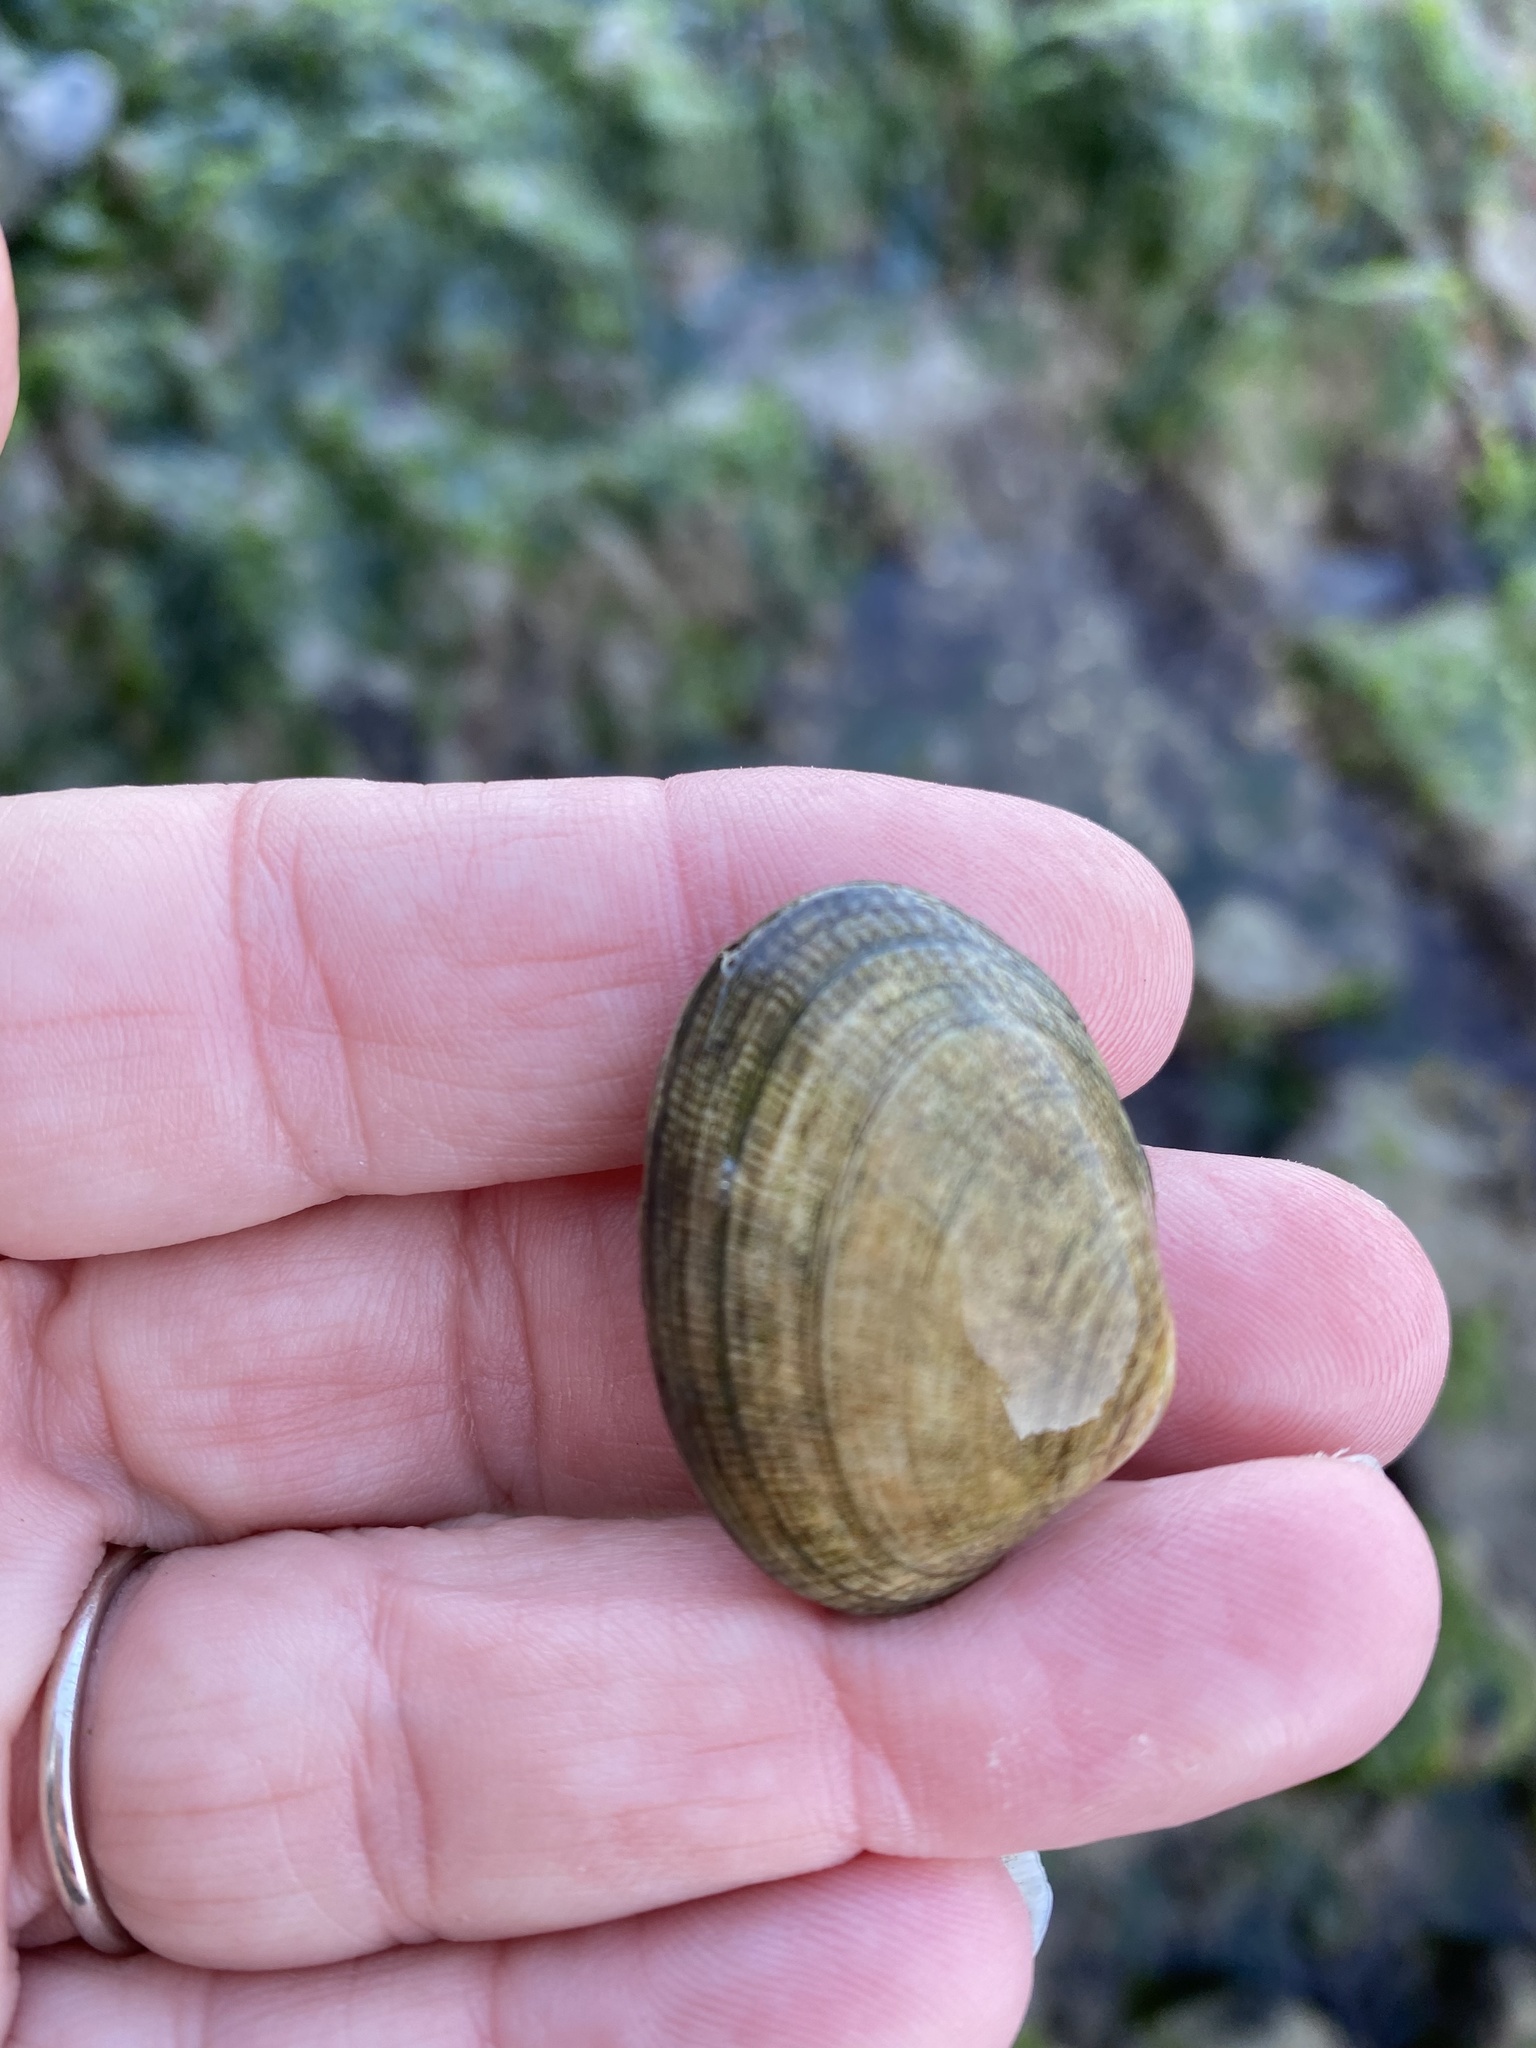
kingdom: Animalia
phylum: Mollusca
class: Bivalvia
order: Venerida
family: Veneridae
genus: Ruditapes
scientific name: Ruditapes philippinarum
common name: Manila clam
